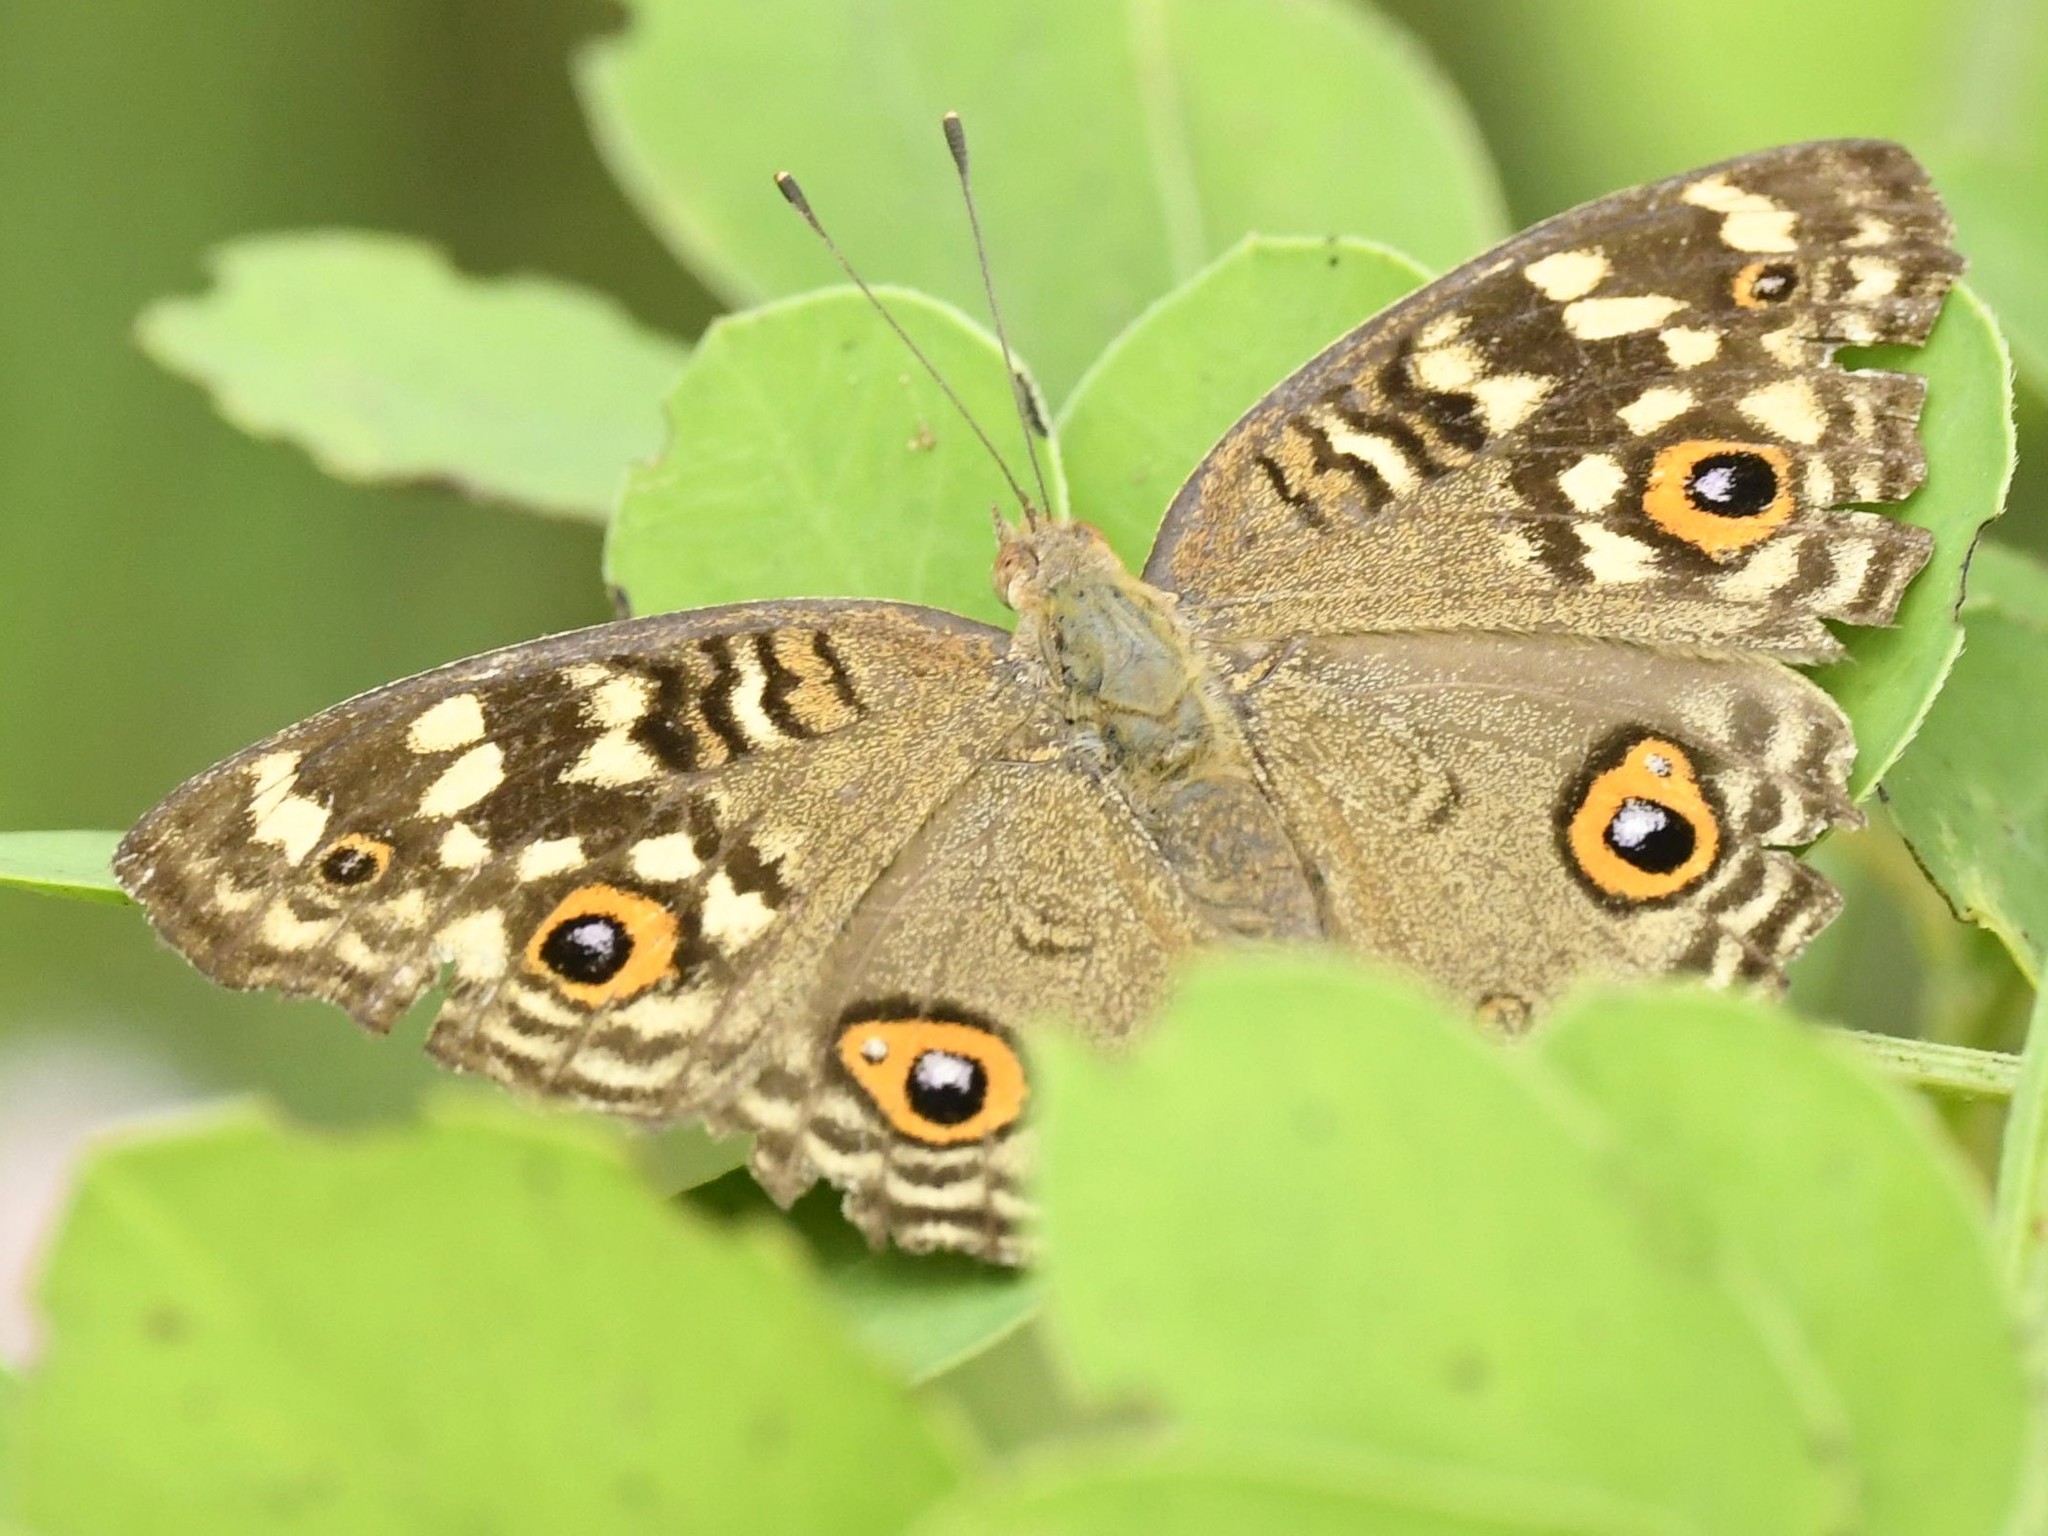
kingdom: Animalia
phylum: Arthropoda
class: Insecta
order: Lepidoptera
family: Nymphalidae
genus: Junonia
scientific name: Junonia lemonias
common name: Lemon pansy
